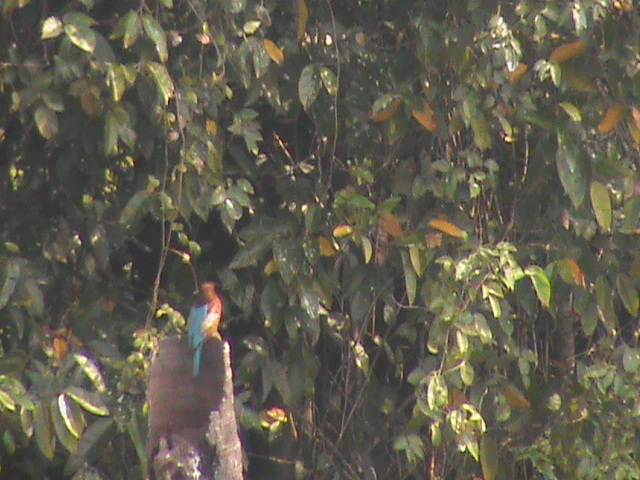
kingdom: Animalia
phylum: Chordata
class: Aves
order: Coraciiformes
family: Alcedinidae
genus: Halcyon
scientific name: Halcyon smyrnensis
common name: White-throated kingfisher
